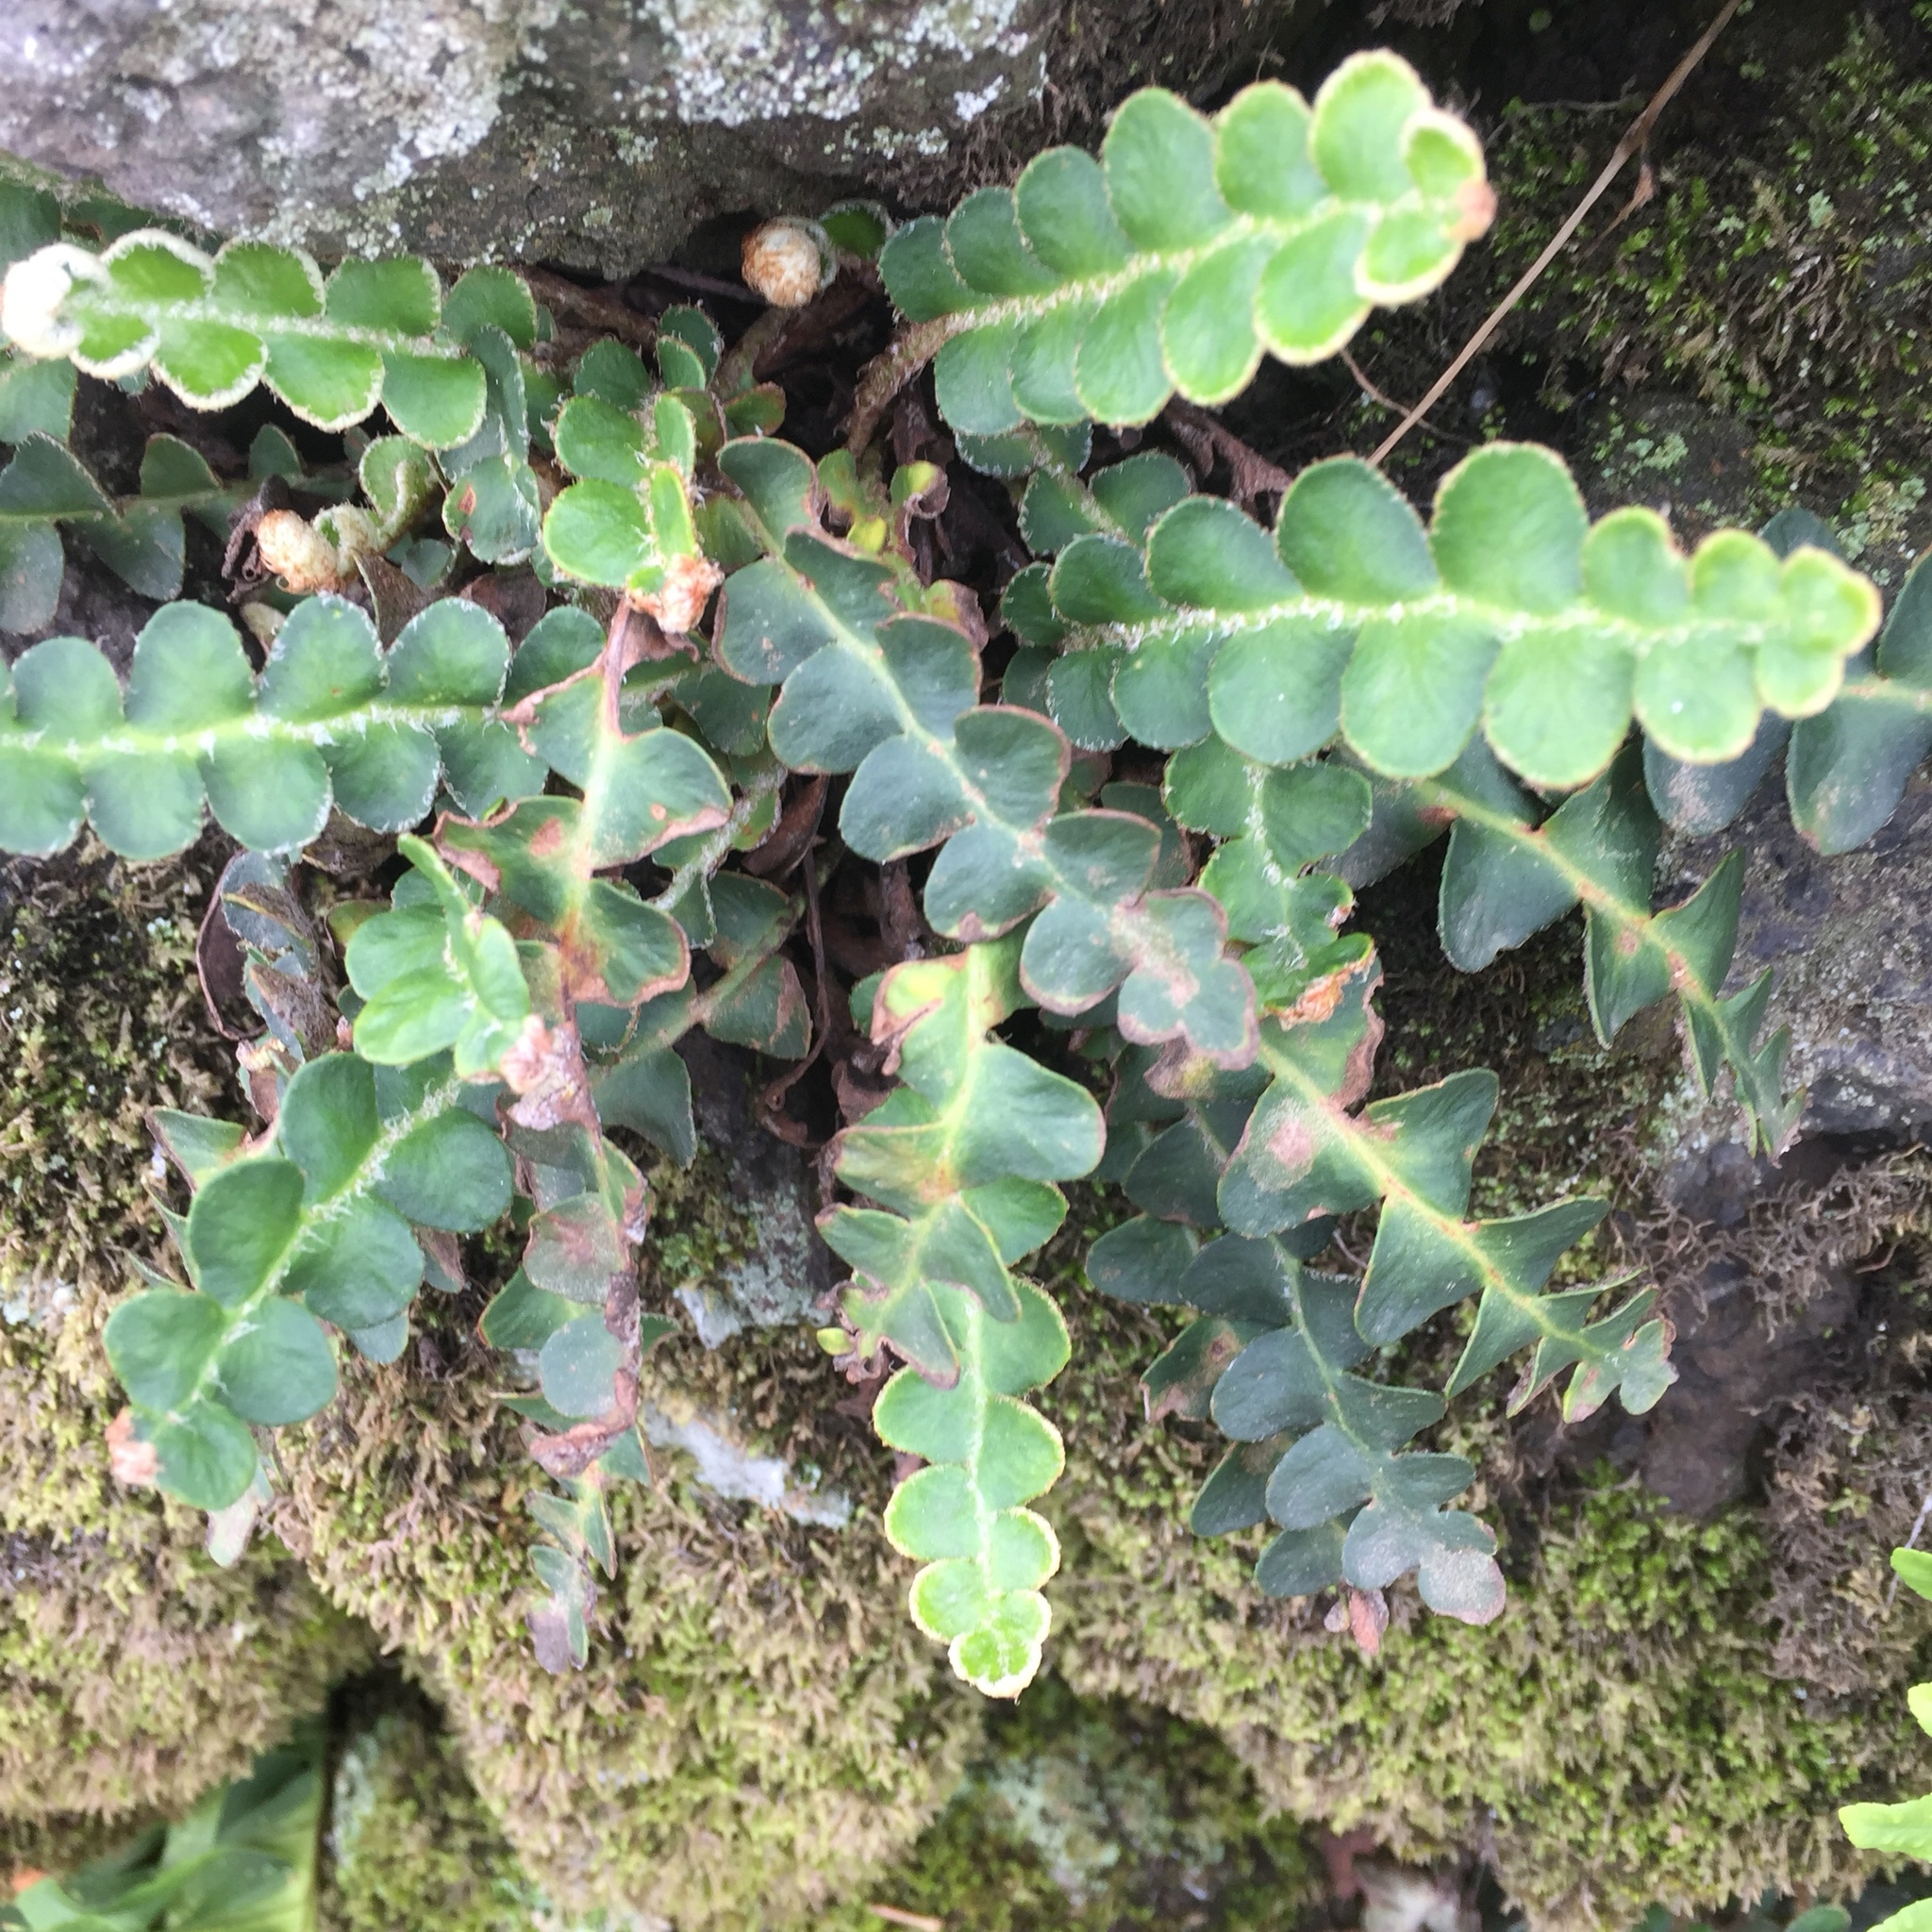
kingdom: Plantae
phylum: Tracheophyta
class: Polypodiopsida
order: Polypodiales
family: Aspleniaceae
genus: Asplenium
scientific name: Asplenium ceterach
